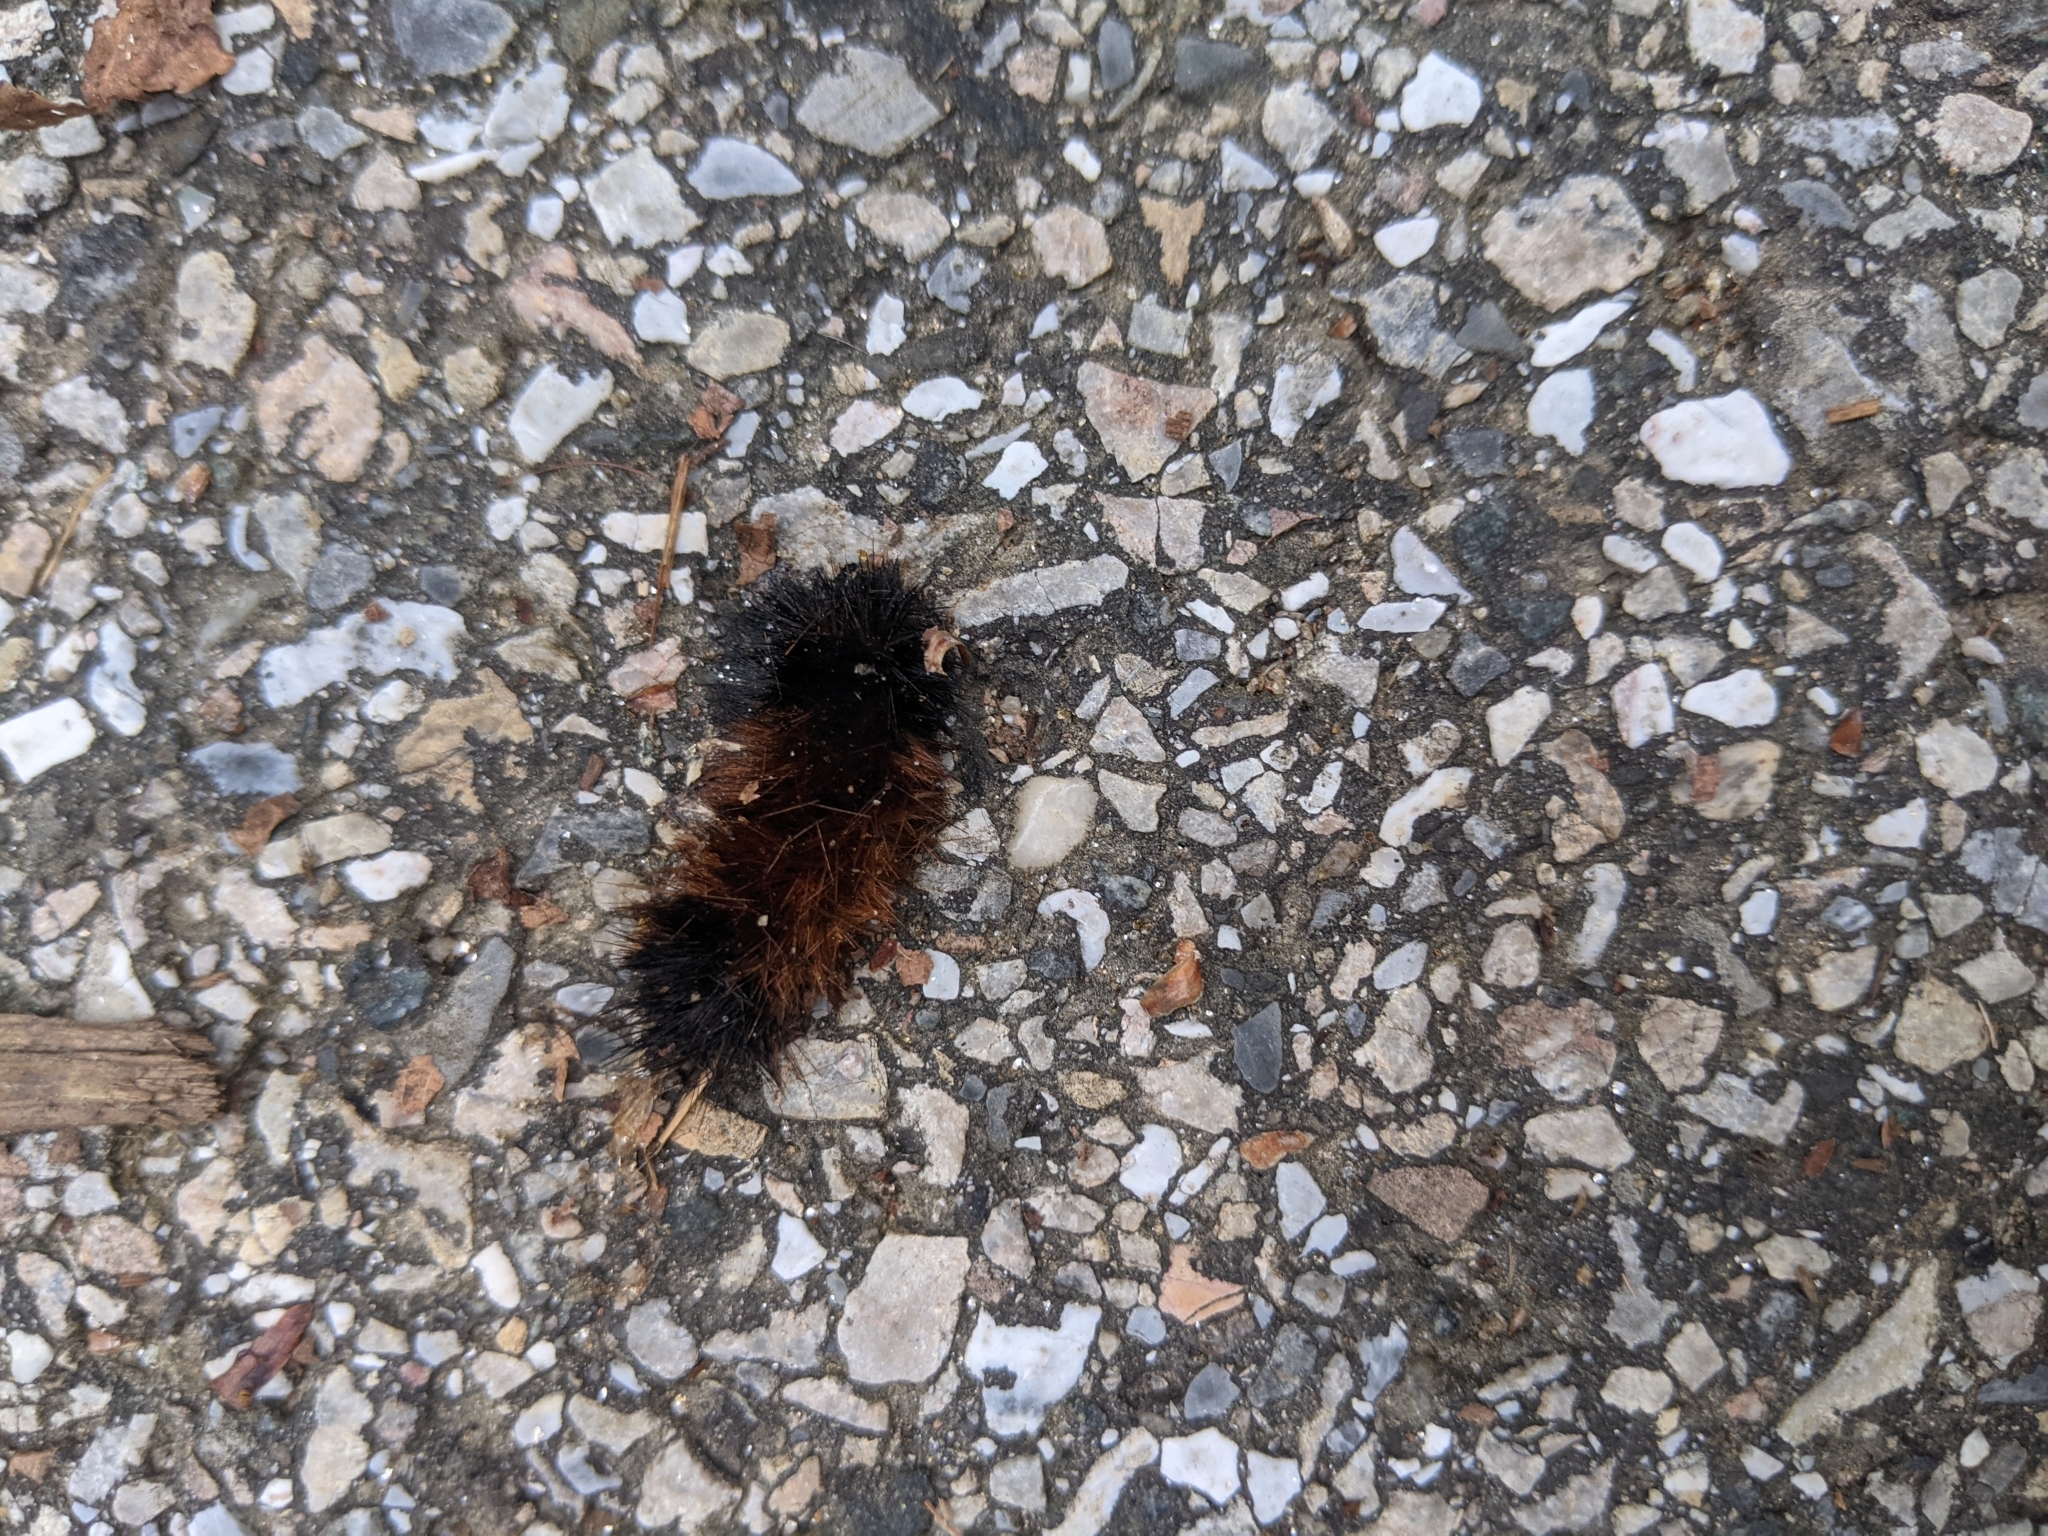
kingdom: Animalia
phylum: Arthropoda
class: Insecta
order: Lepidoptera
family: Erebidae
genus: Pyrrharctia
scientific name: Pyrrharctia isabella
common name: Isabella tiger moth
